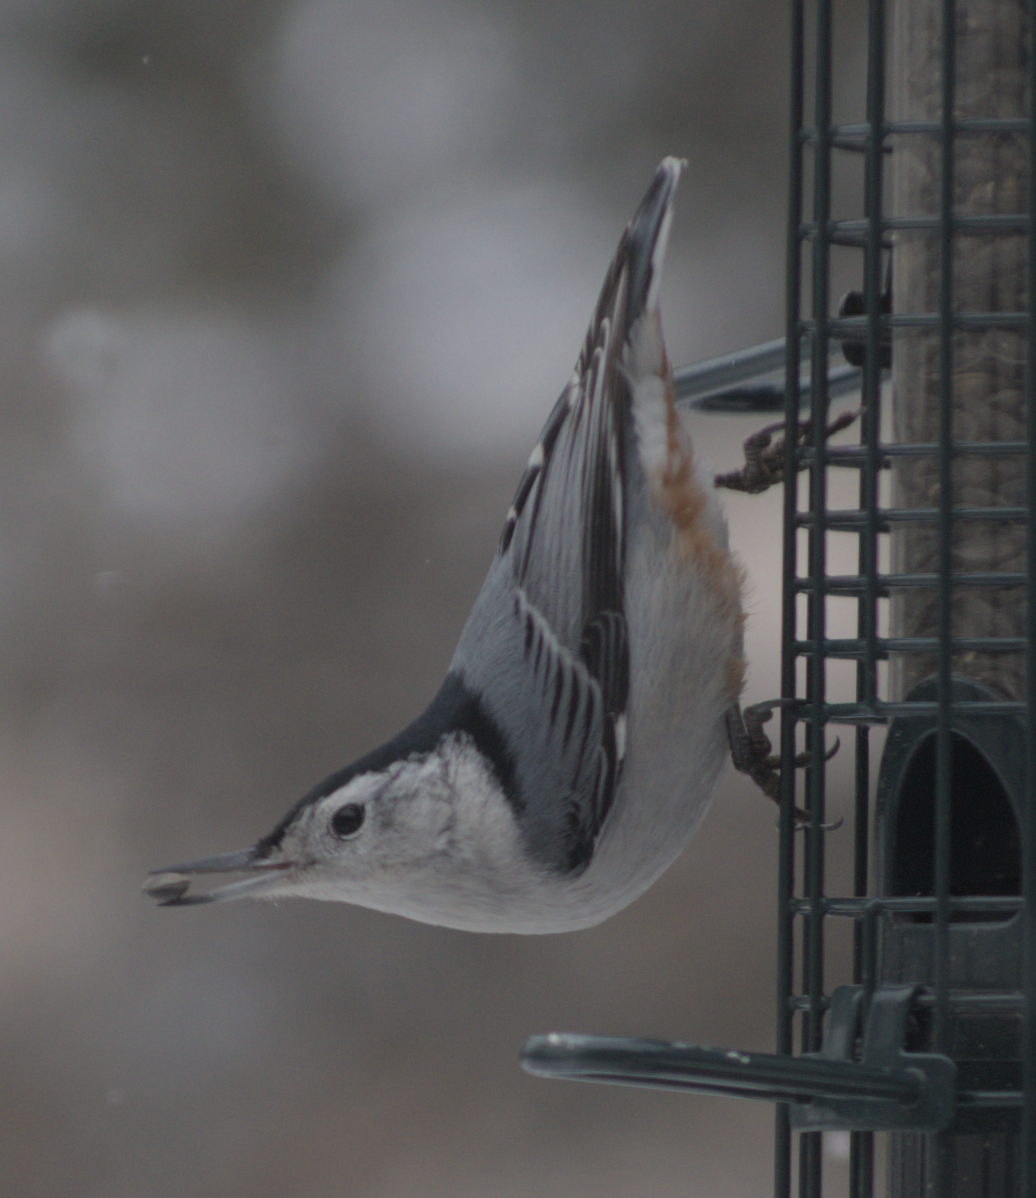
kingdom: Animalia
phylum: Chordata
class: Aves
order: Passeriformes
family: Sittidae
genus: Sitta
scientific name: Sitta carolinensis
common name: White-breasted nuthatch
